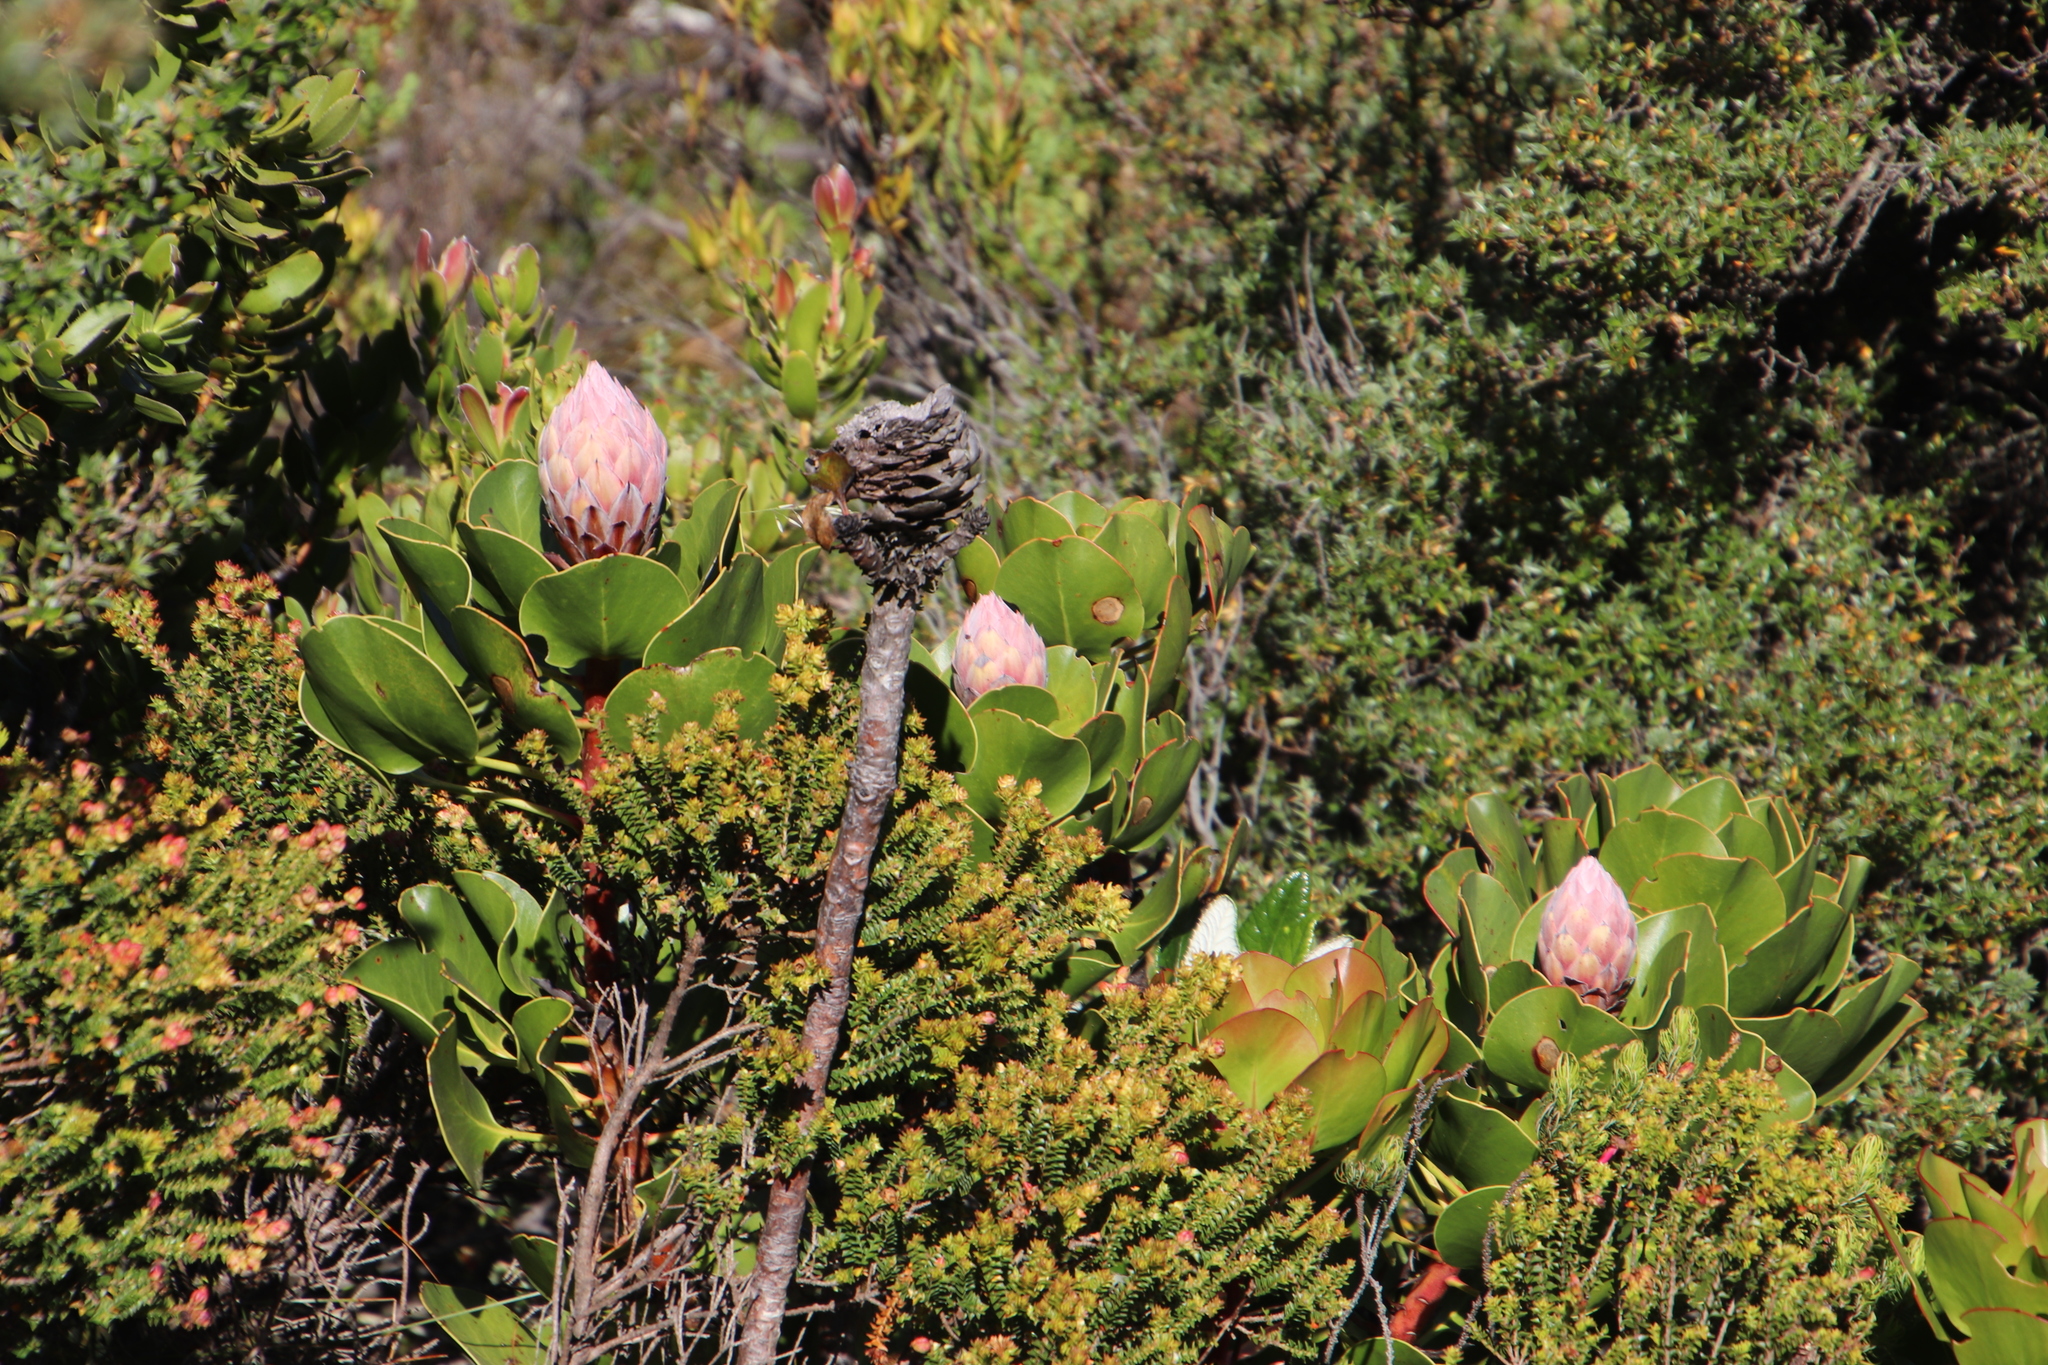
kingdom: Plantae
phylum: Tracheophyta
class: Magnoliopsida
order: Proteales
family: Proteaceae
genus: Protea
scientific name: Protea cynaroides
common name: King protea
